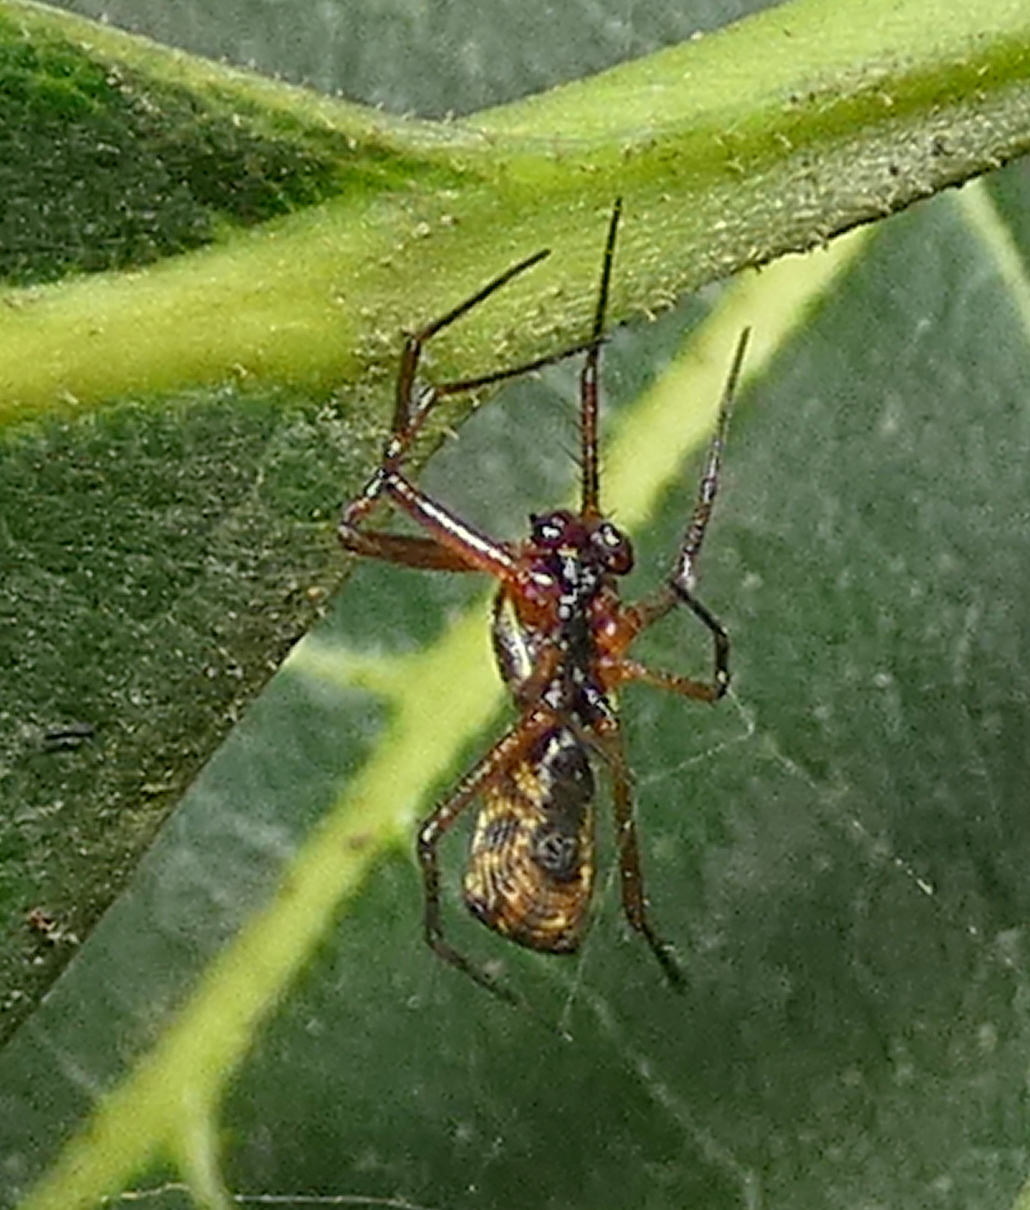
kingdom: Animalia
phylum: Arthropoda
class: Arachnida
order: Araneae
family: Araneidae
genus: Micrathena
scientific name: Micrathena fissispina
